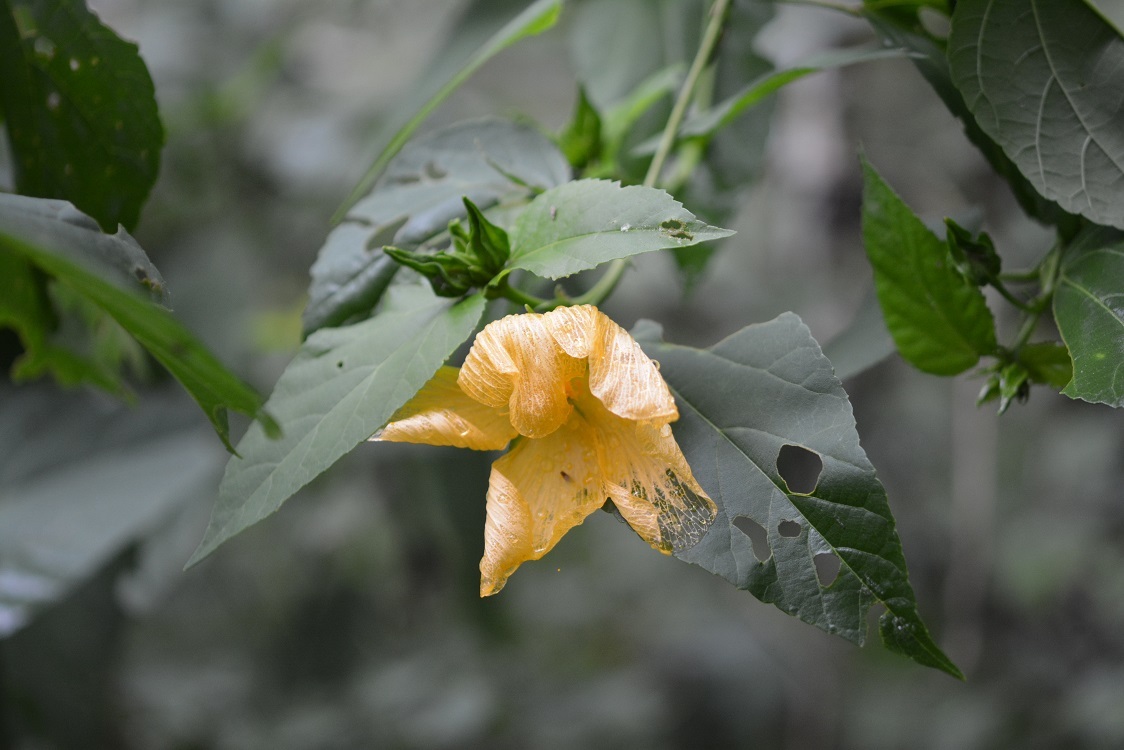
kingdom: Plantae
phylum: Tracheophyta
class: Magnoliopsida
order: Malvales
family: Malvaceae
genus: Dendrosida
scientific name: Dendrosida sharpiana
